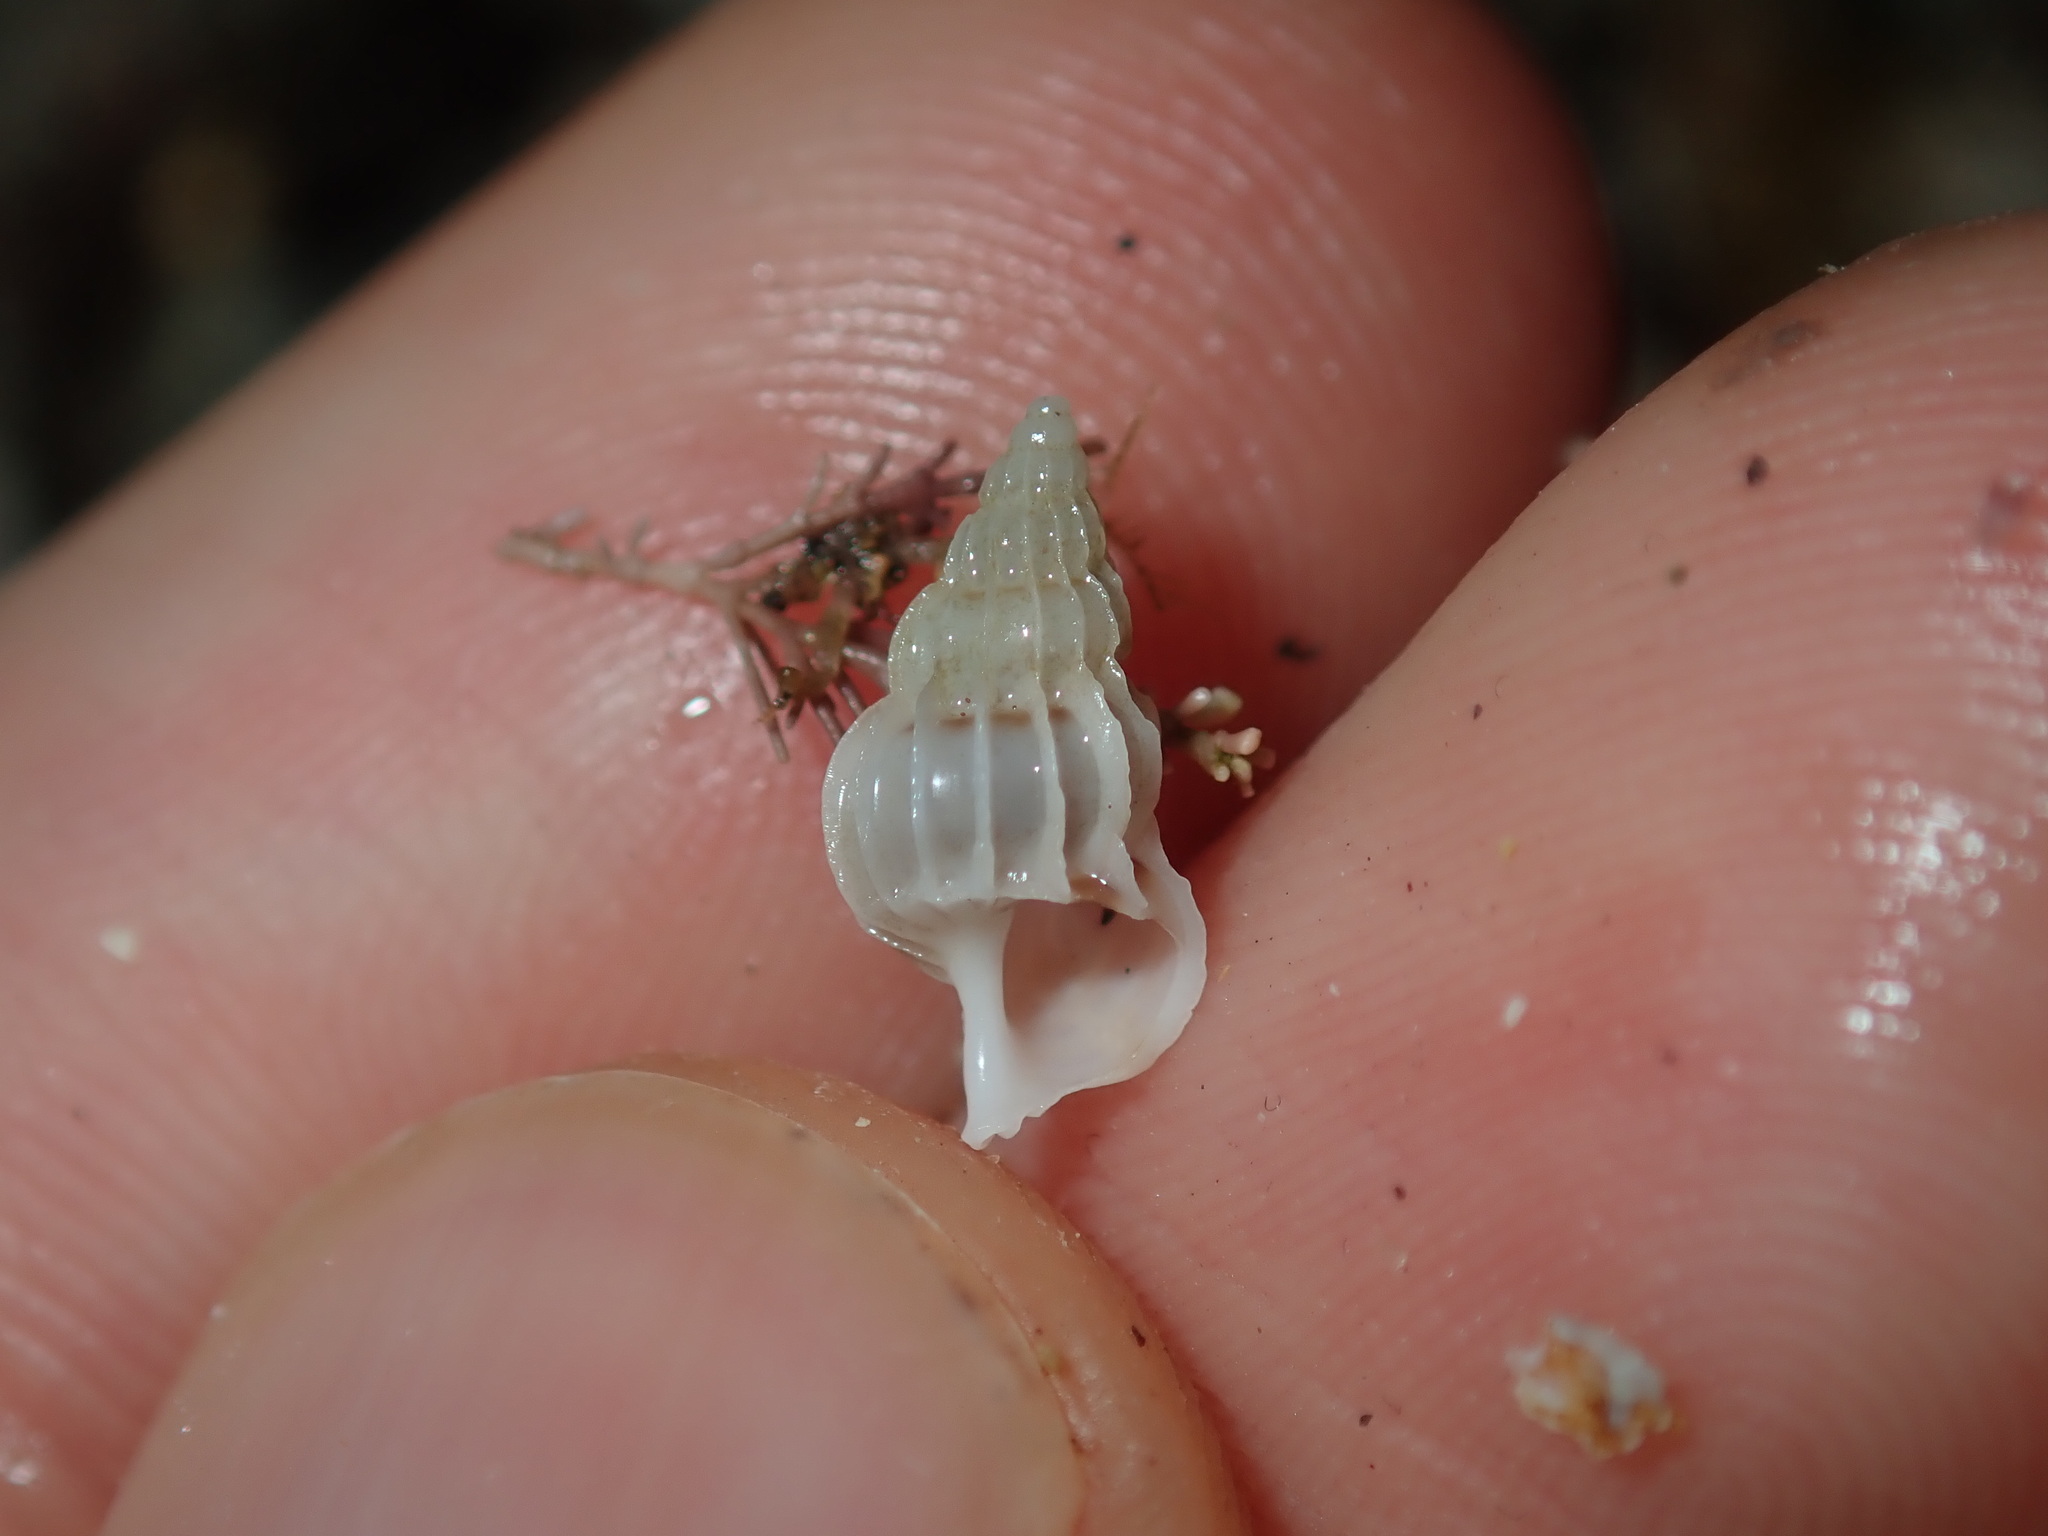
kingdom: Animalia
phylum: Mollusca
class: Gastropoda
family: Epitoniidae
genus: Gyroscala
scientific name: Gyroscala commutata
